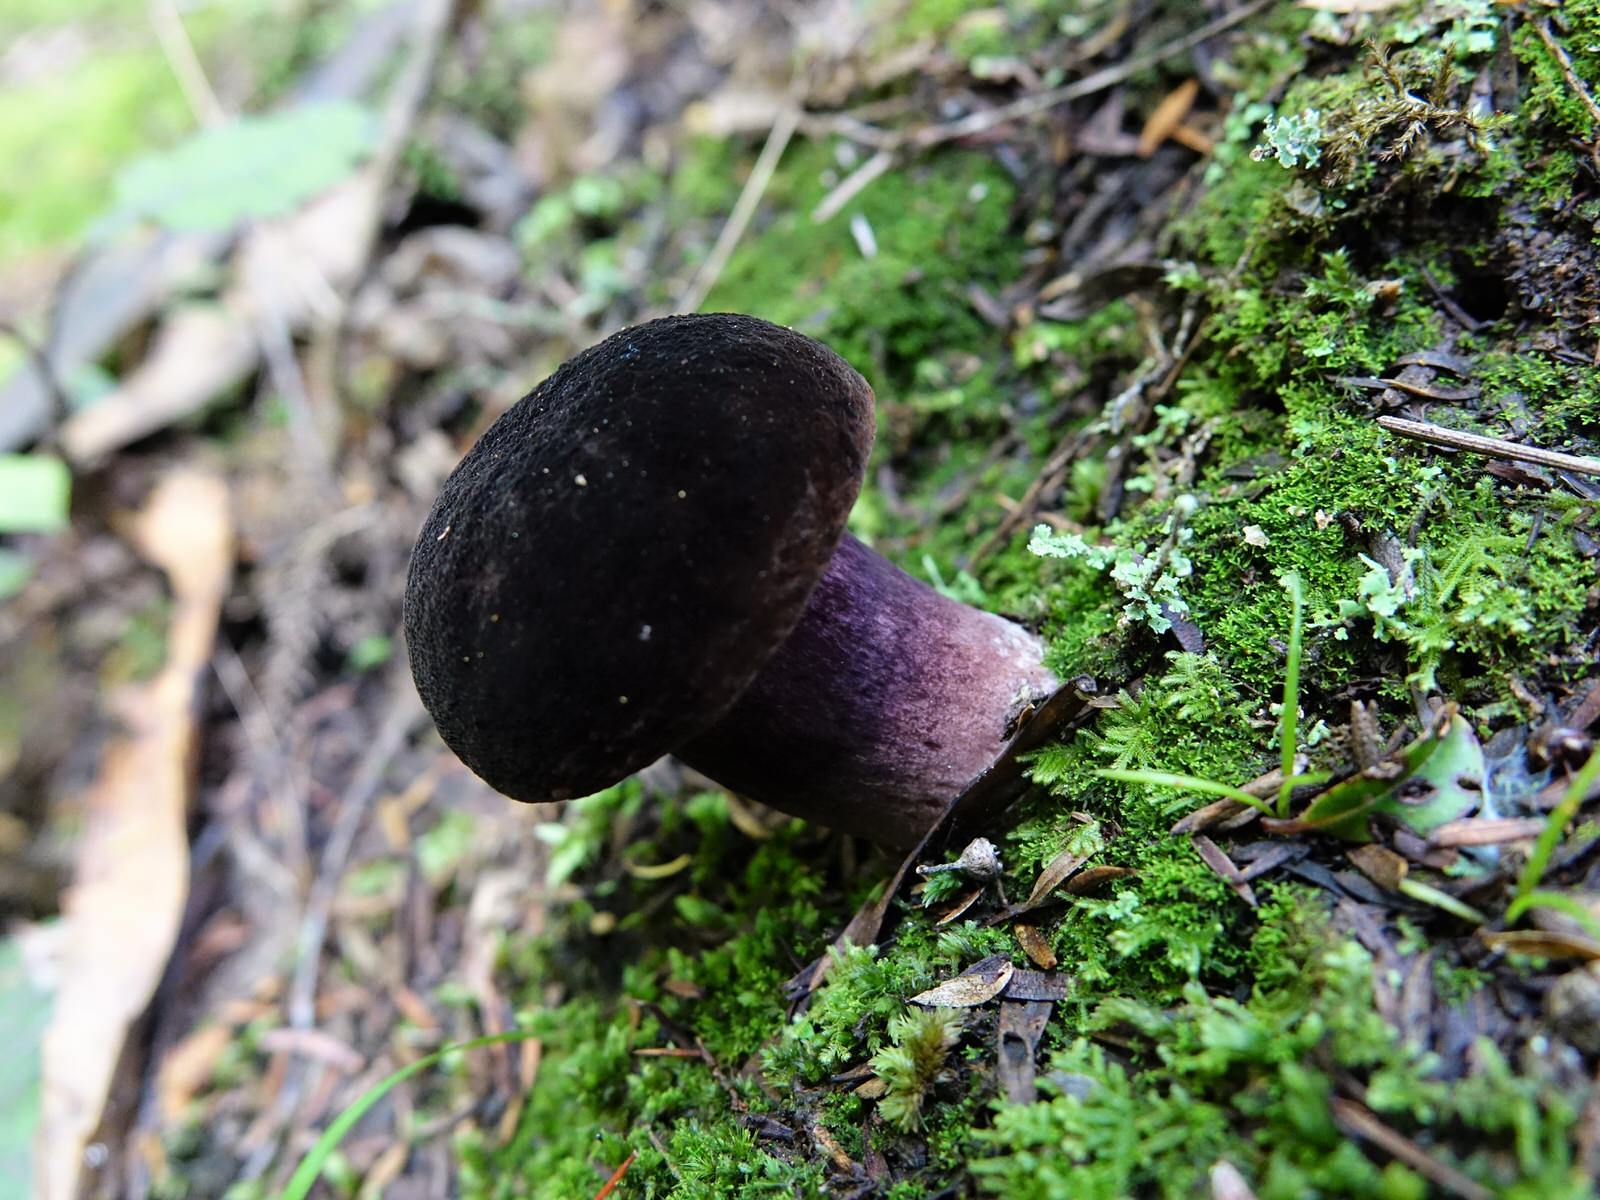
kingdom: Fungi
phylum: Basidiomycota
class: Agaricomycetes
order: Boletales
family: Boletaceae
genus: Porphyrellus
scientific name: Porphyrellus formosus
